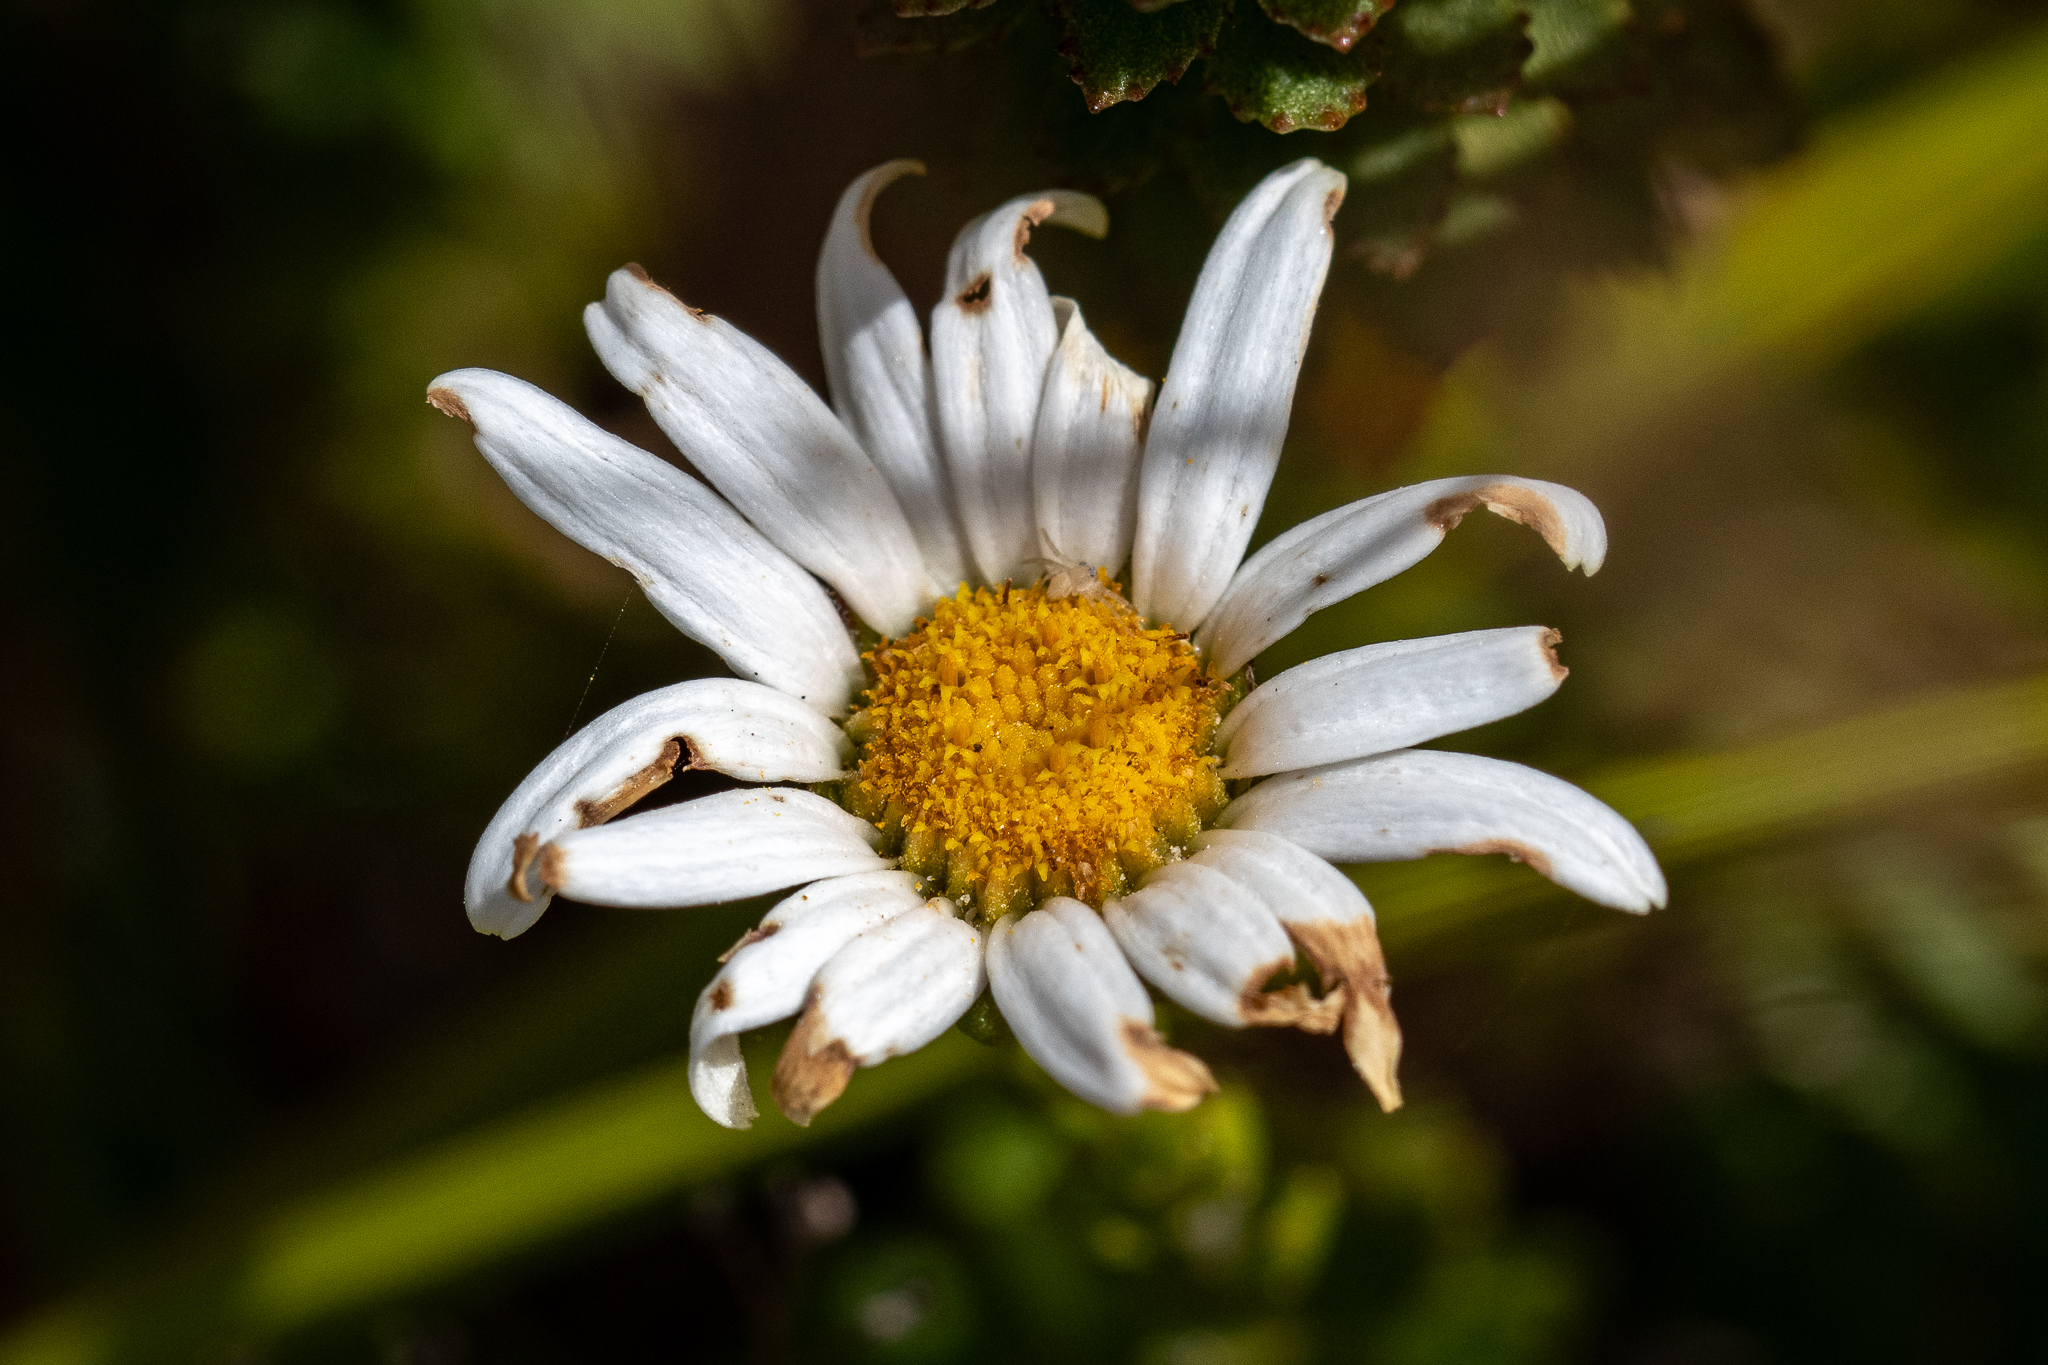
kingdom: Plantae
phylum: Tracheophyta
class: Magnoliopsida
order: Asterales
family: Asteraceae
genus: Osmitopsis
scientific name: Osmitopsis afra
